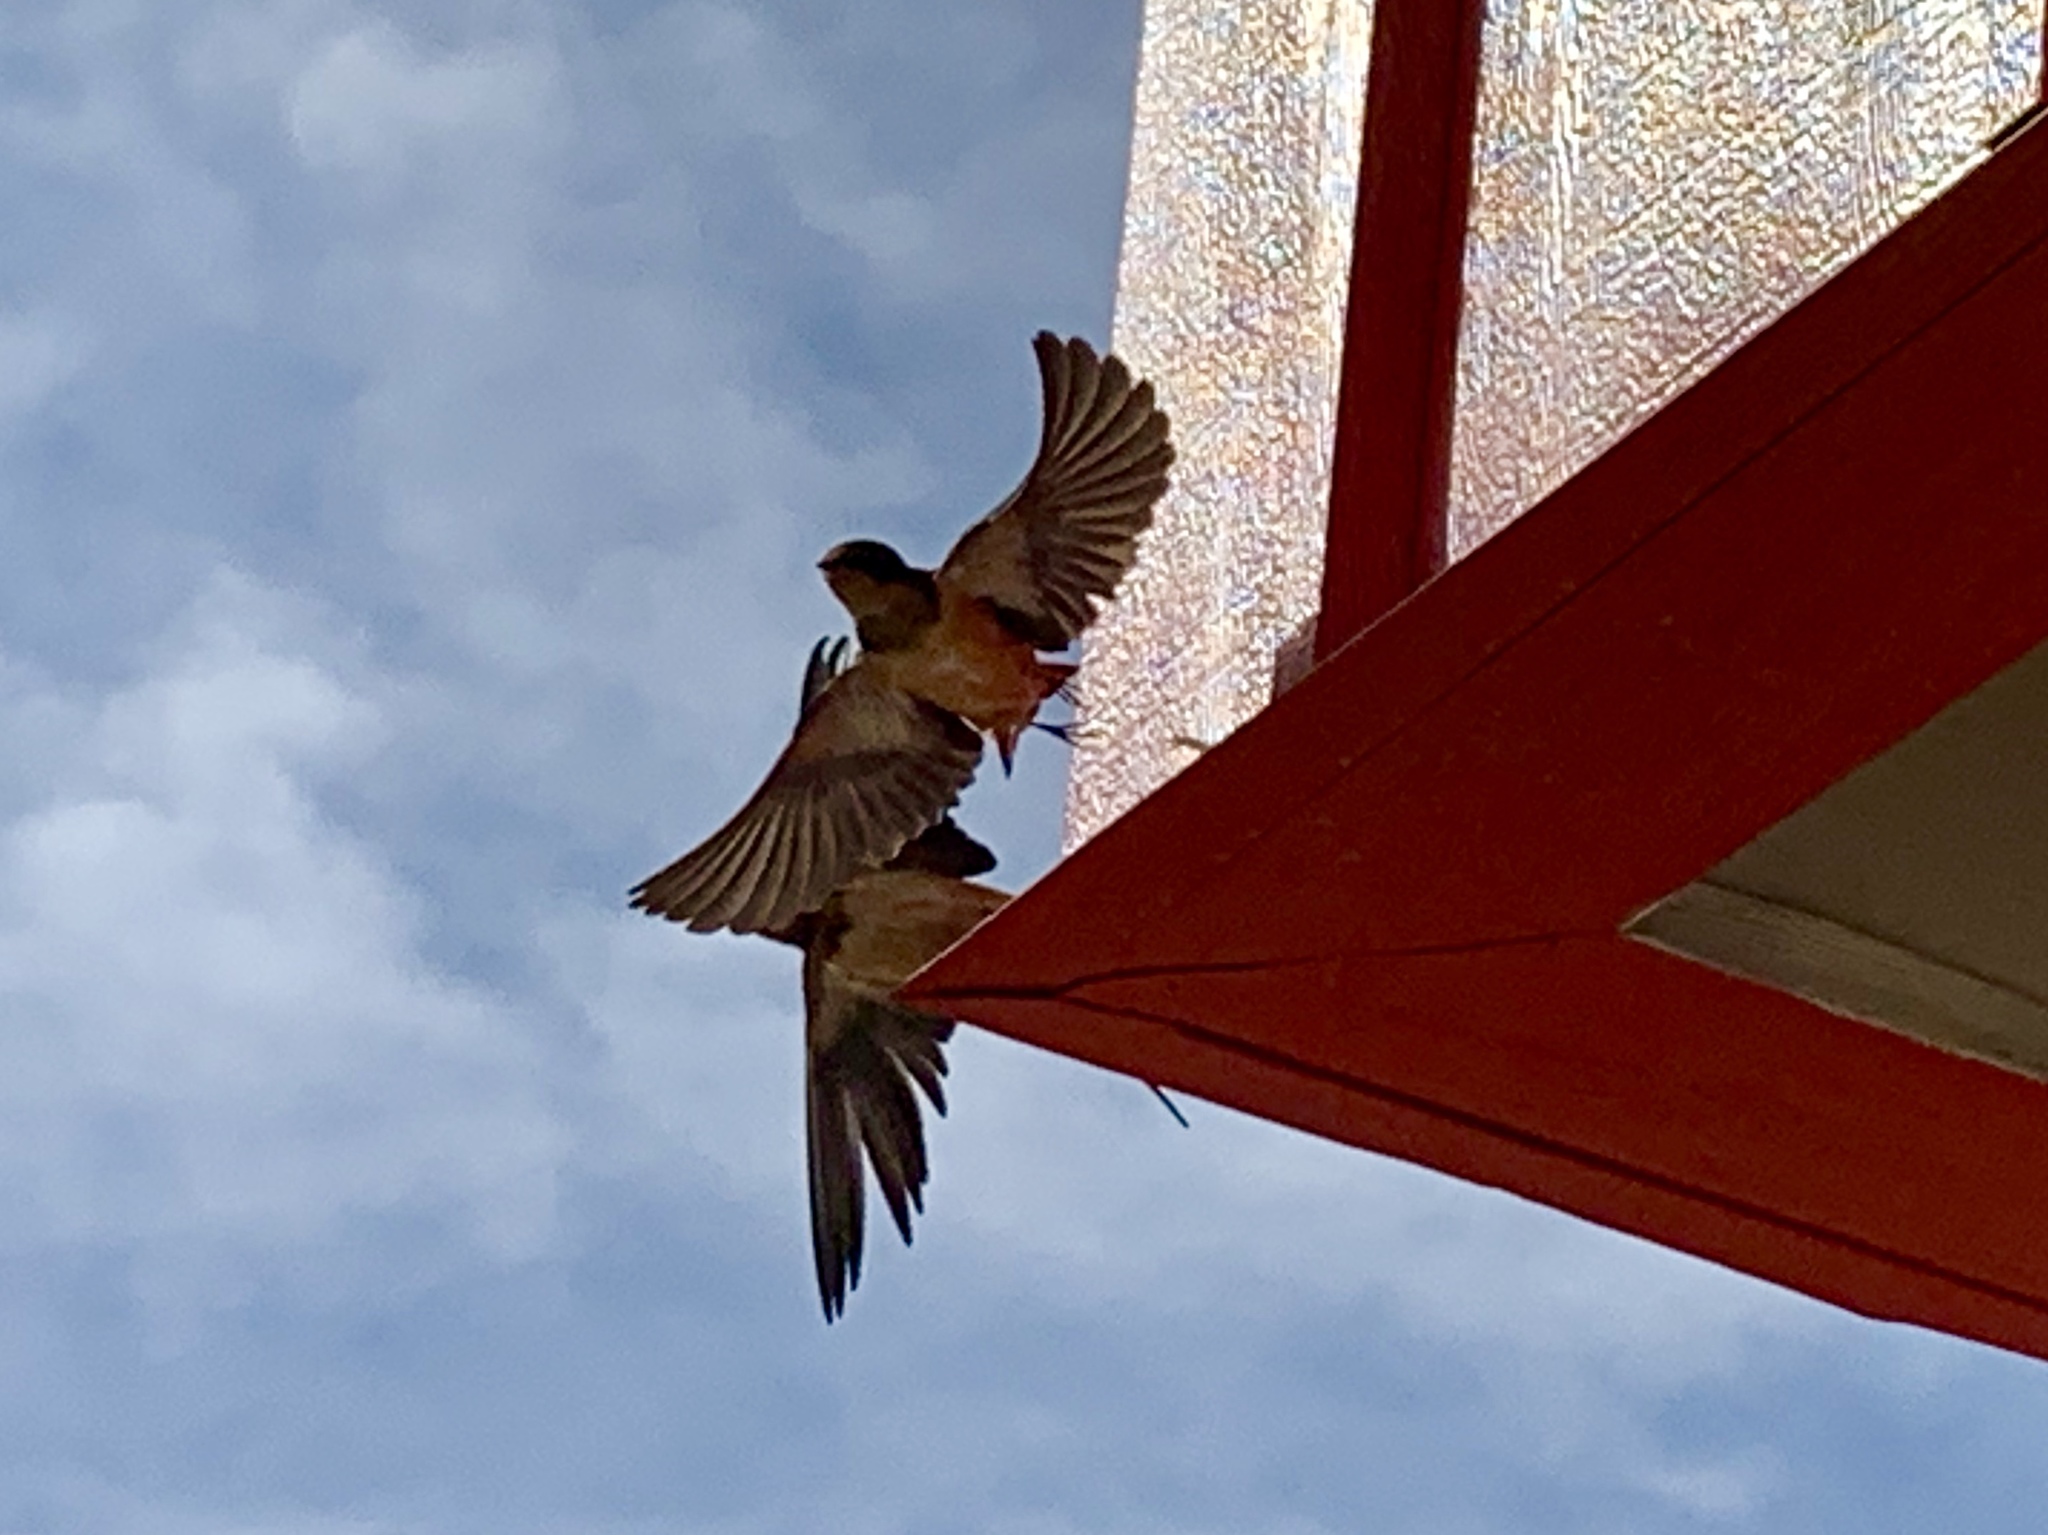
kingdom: Animalia
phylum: Chordata
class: Aves
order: Passeriformes
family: Hirundinidae
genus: Hirundo
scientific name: Hirundo rustica
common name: Barn swallow
